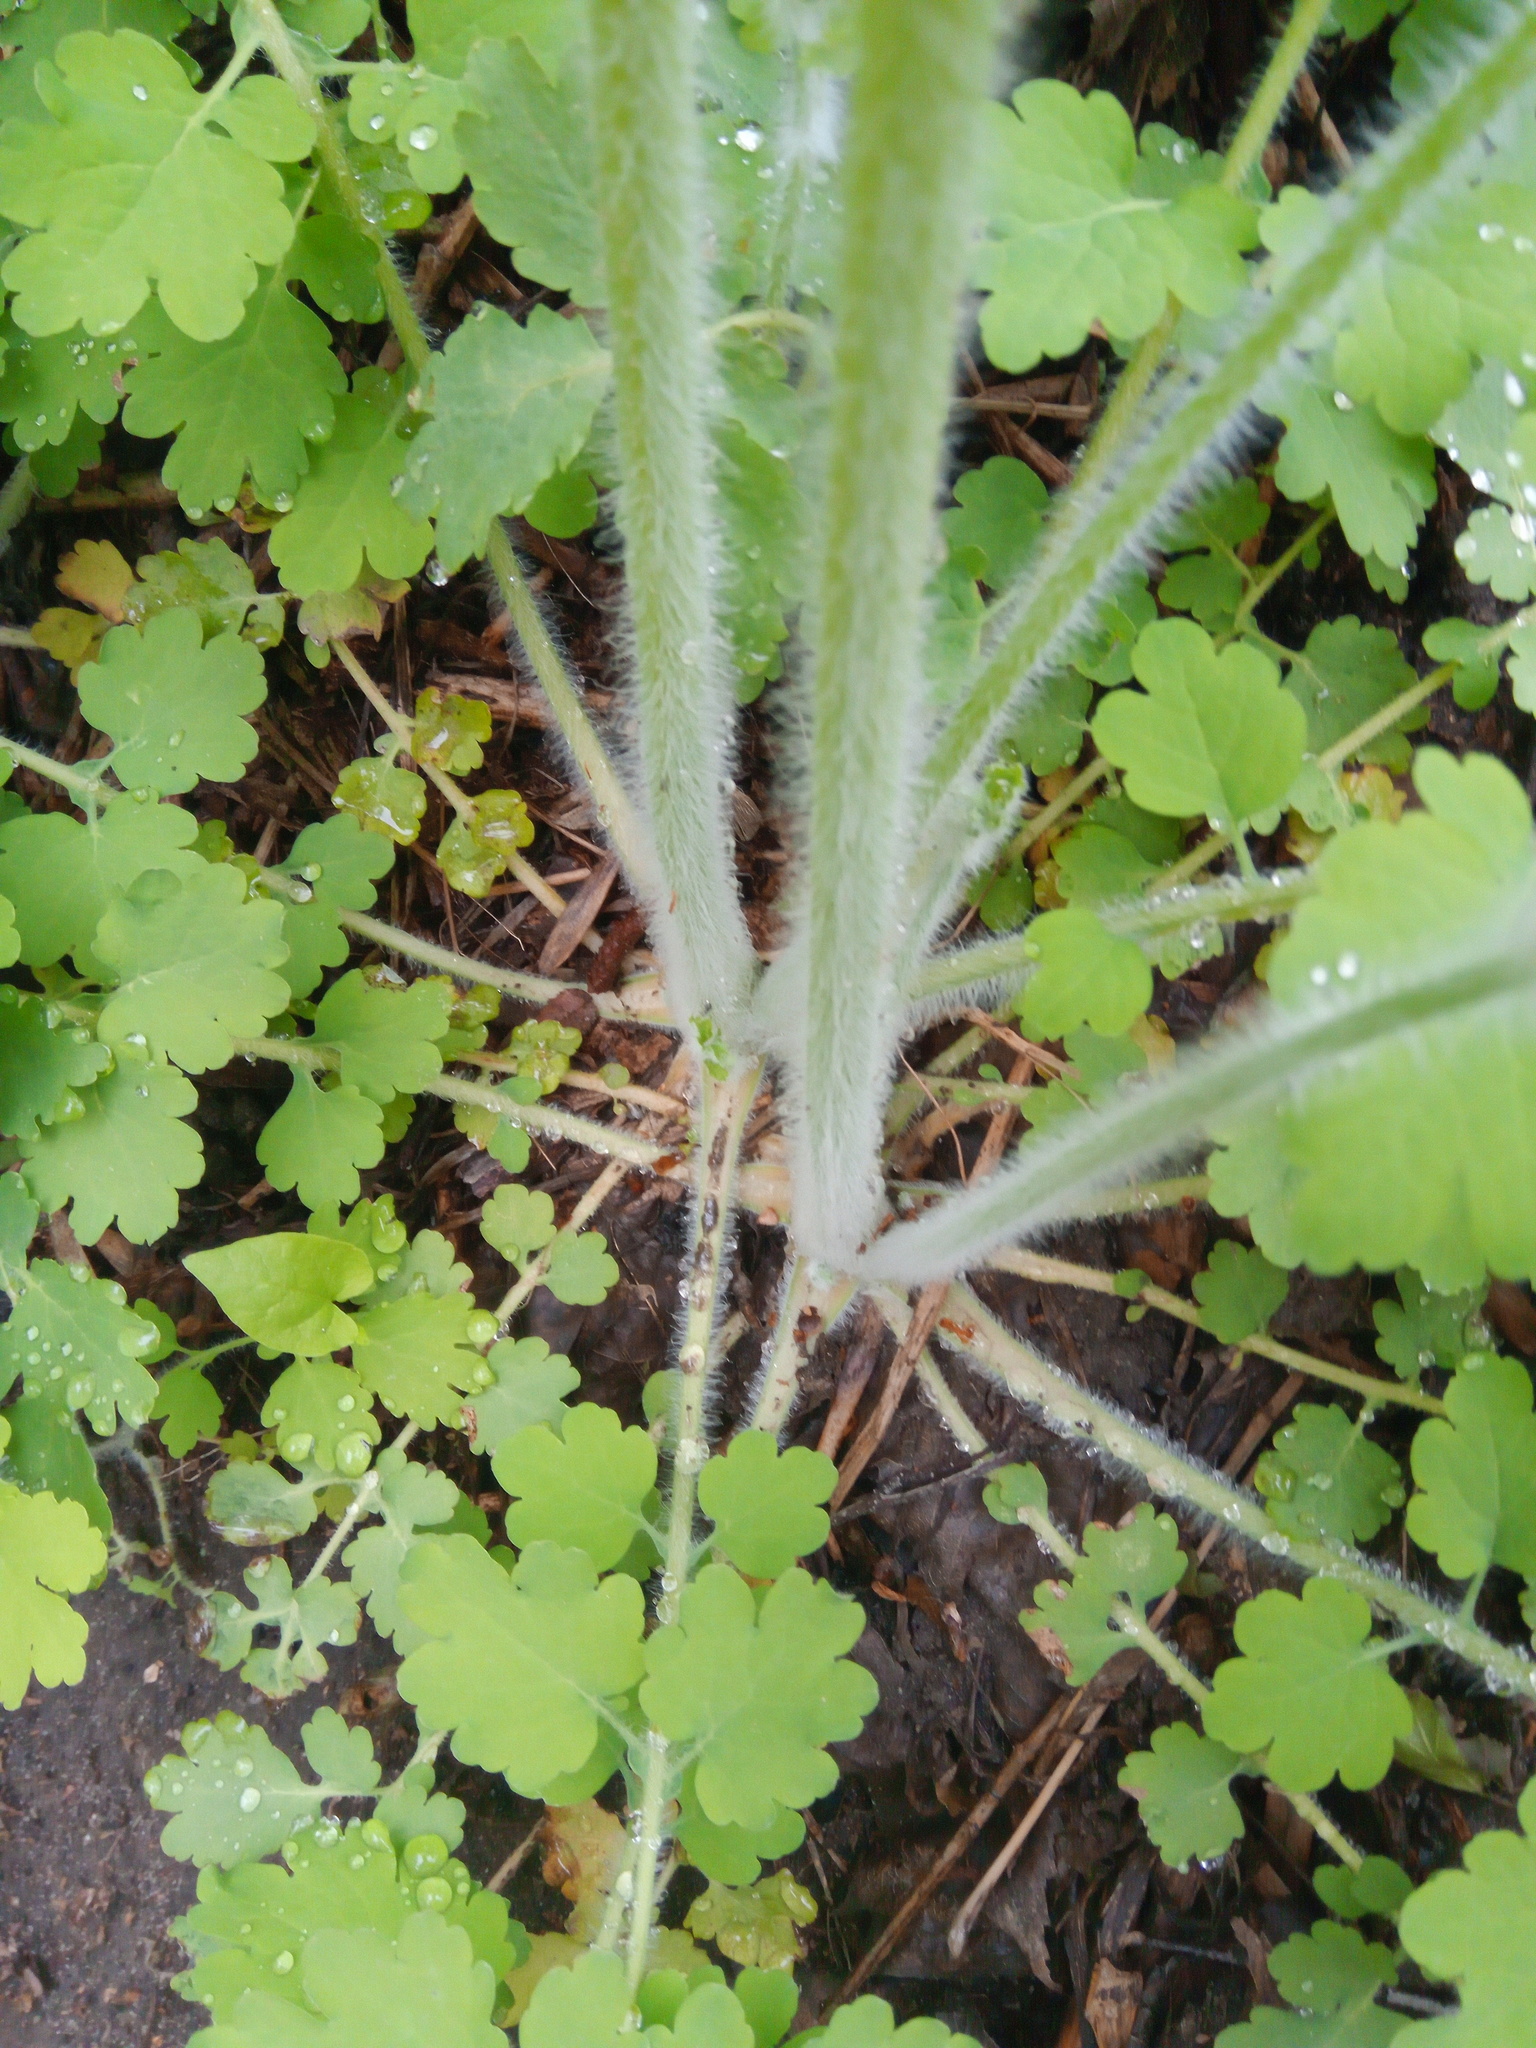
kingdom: Plantae
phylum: Tracheophyta
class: Magnoliopsida
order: Ranunculales
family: Papaveraceae
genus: Chelidonium
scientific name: Chelidonium majus
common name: Greater celandine
